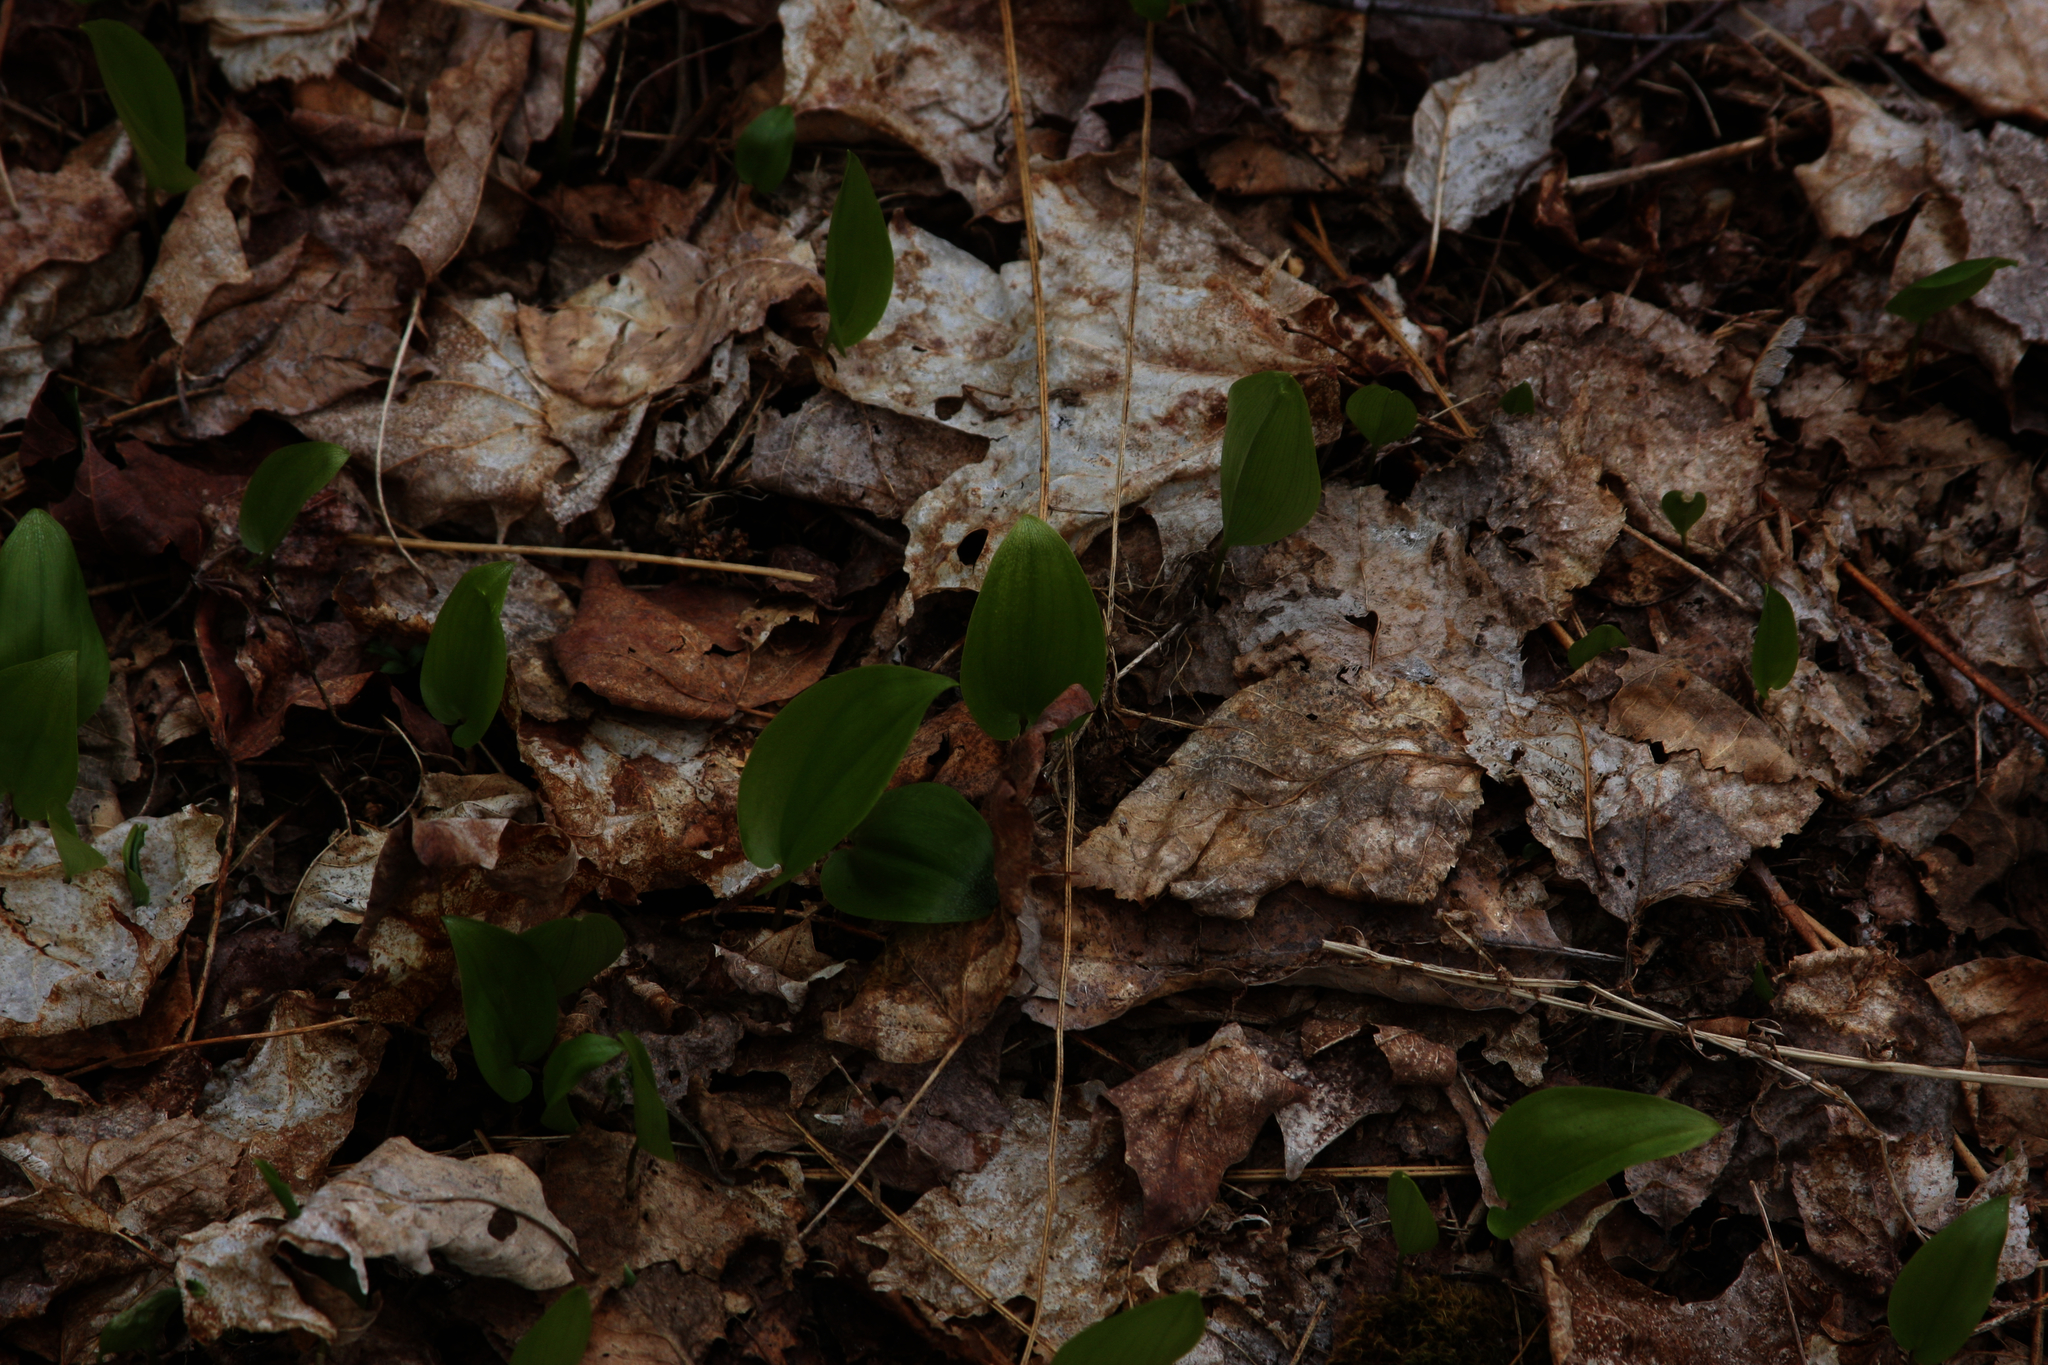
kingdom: Plantae
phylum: Tracheophyta
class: Liliopsida
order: Asparagales
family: Asparagaceae
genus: Maianthemum
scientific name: Maianthemum canadense
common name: False lily-of-the-valley
